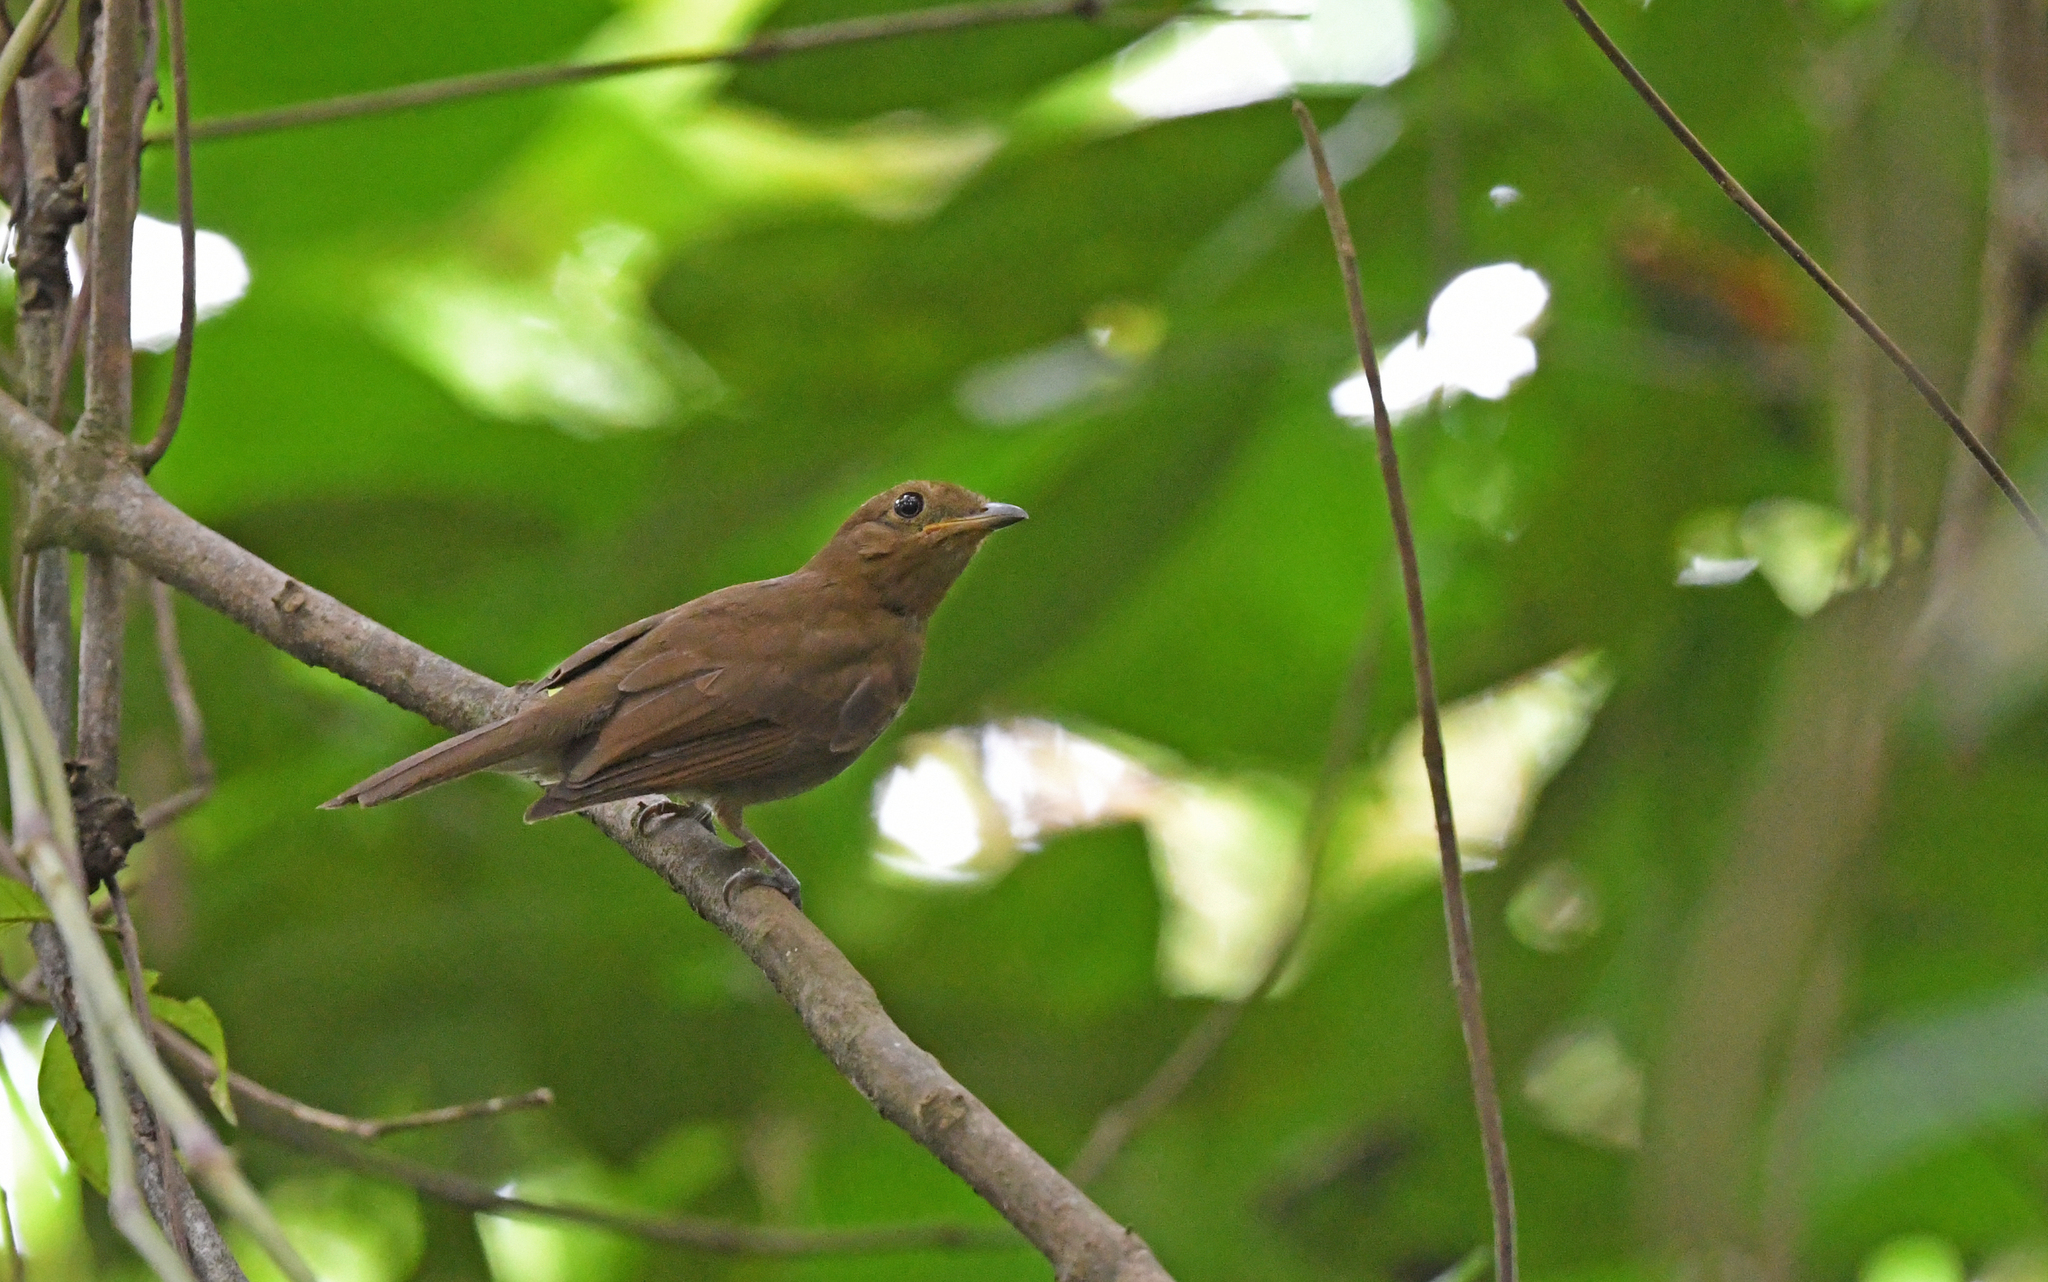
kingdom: Animalia
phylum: Chordata
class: Aves
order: Passeriformes
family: Cotingidae
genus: Schiffornis
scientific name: Schiffornis turdina
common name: Brown-winged schiffornis
